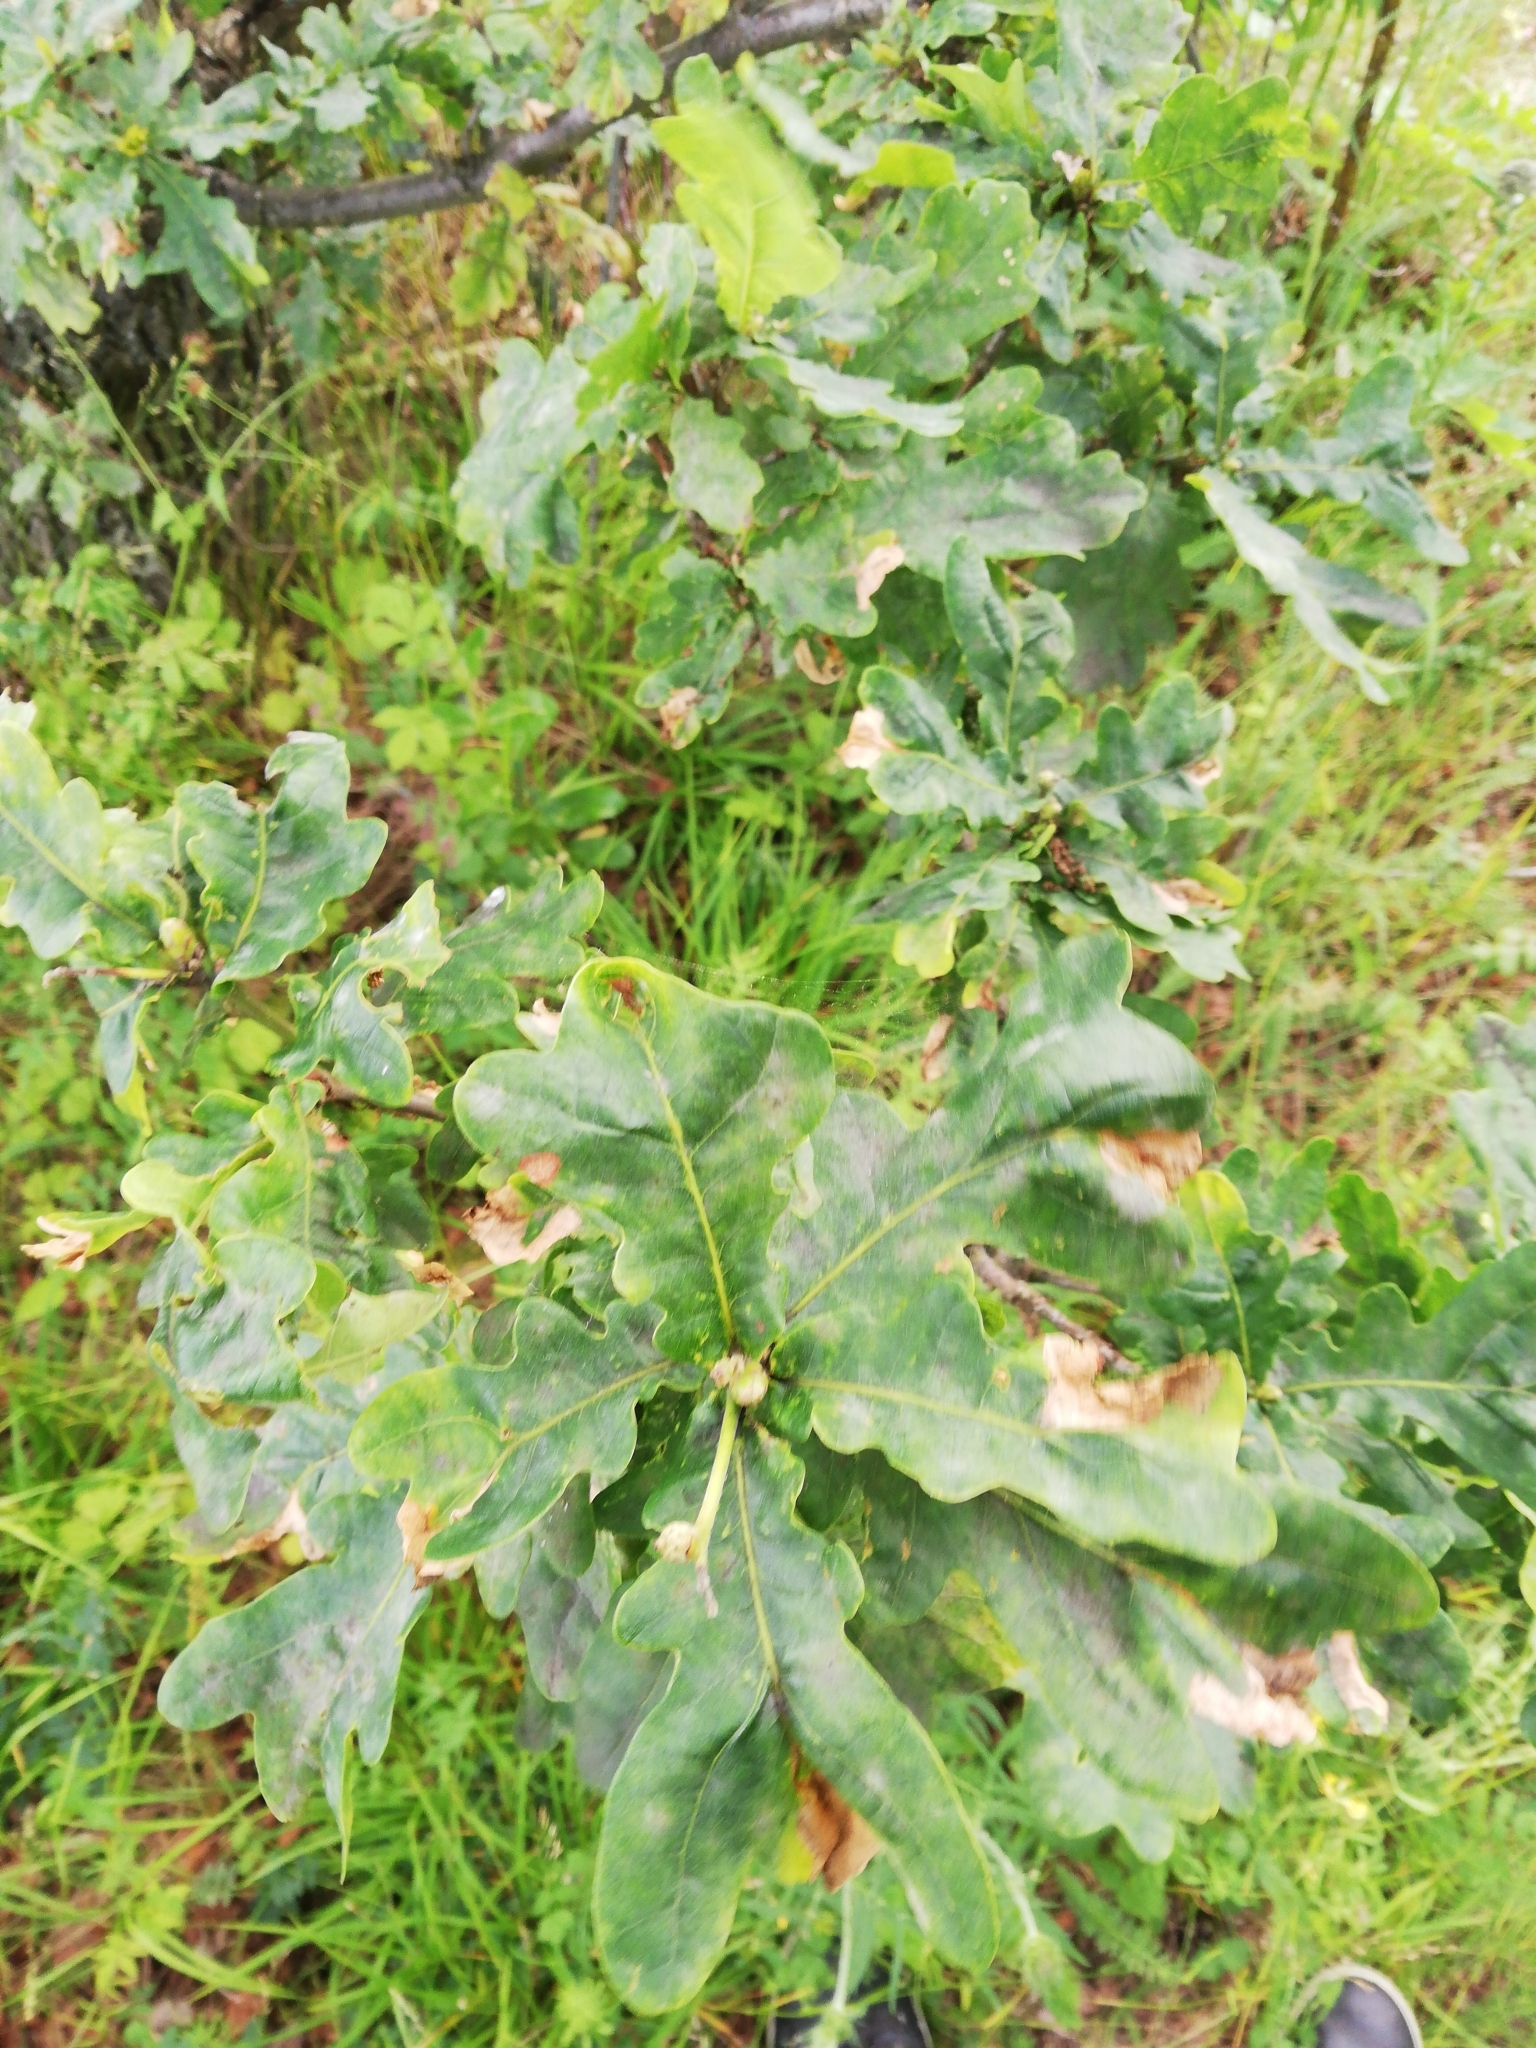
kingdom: Plantae
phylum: Tracheophyta
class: Magnoliopsida
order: Fagales
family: Fagaceae
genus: Quercus
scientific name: Quercus robur
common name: Pedunculate oak
